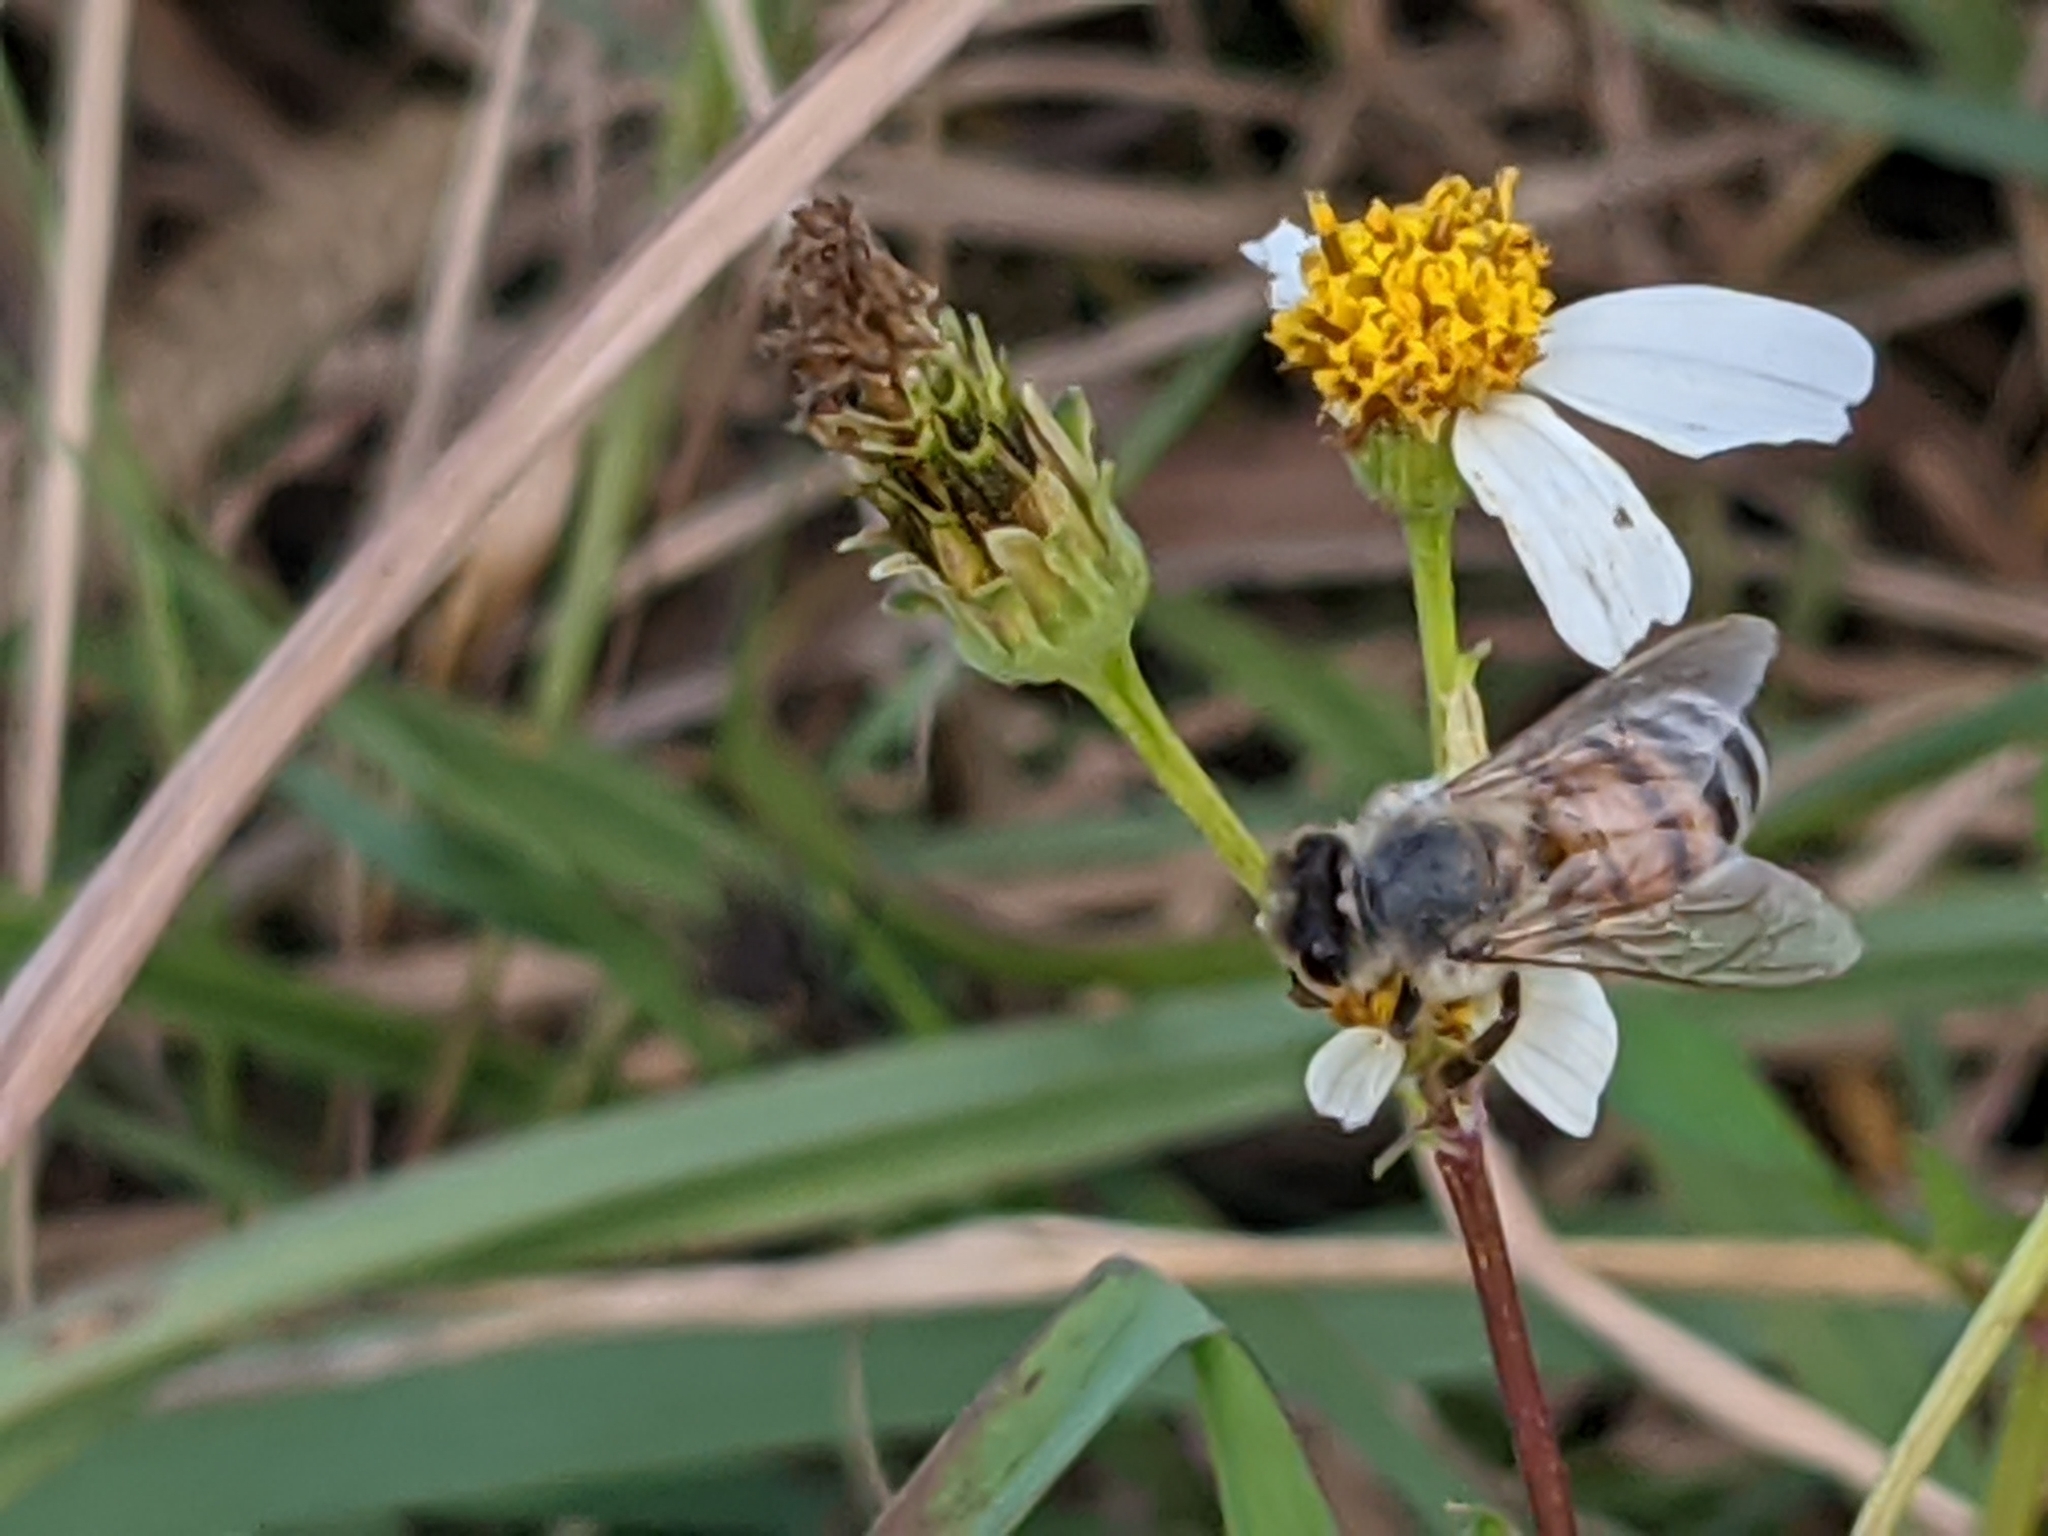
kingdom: Animalia
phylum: Arthropoda
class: Insecta
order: Hymenoptera
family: Apidae
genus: Apis
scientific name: Apis mellifera
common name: Honey bee
